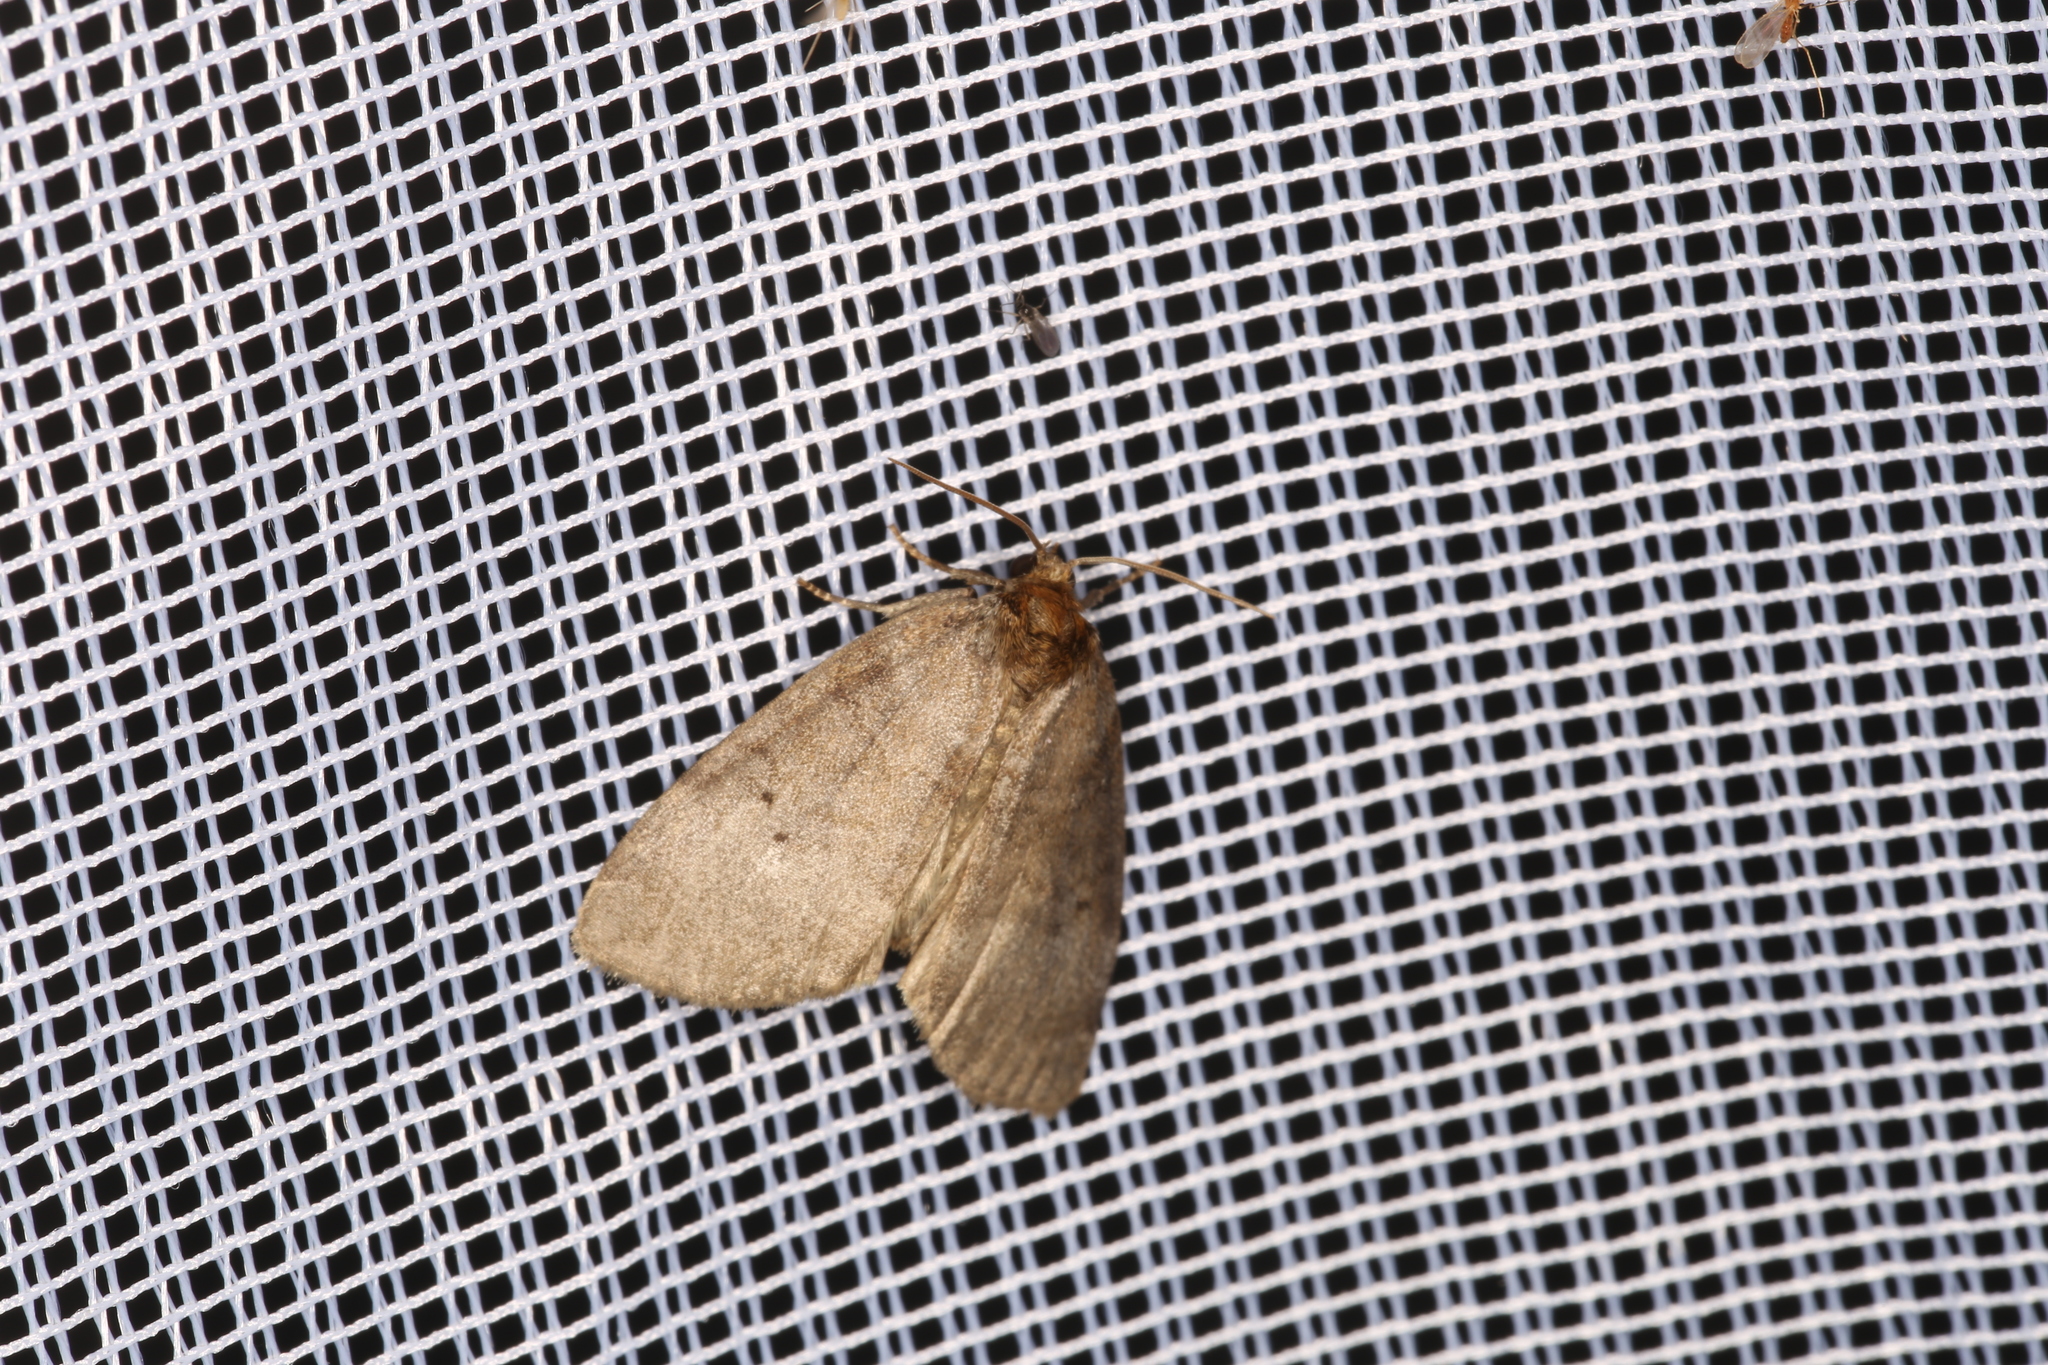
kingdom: Animalia
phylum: Arthropoda
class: Insecta
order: Lepidoptera
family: Drepanidae
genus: Ochropacha
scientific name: Ochropacha duplaris
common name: Common lutestring
